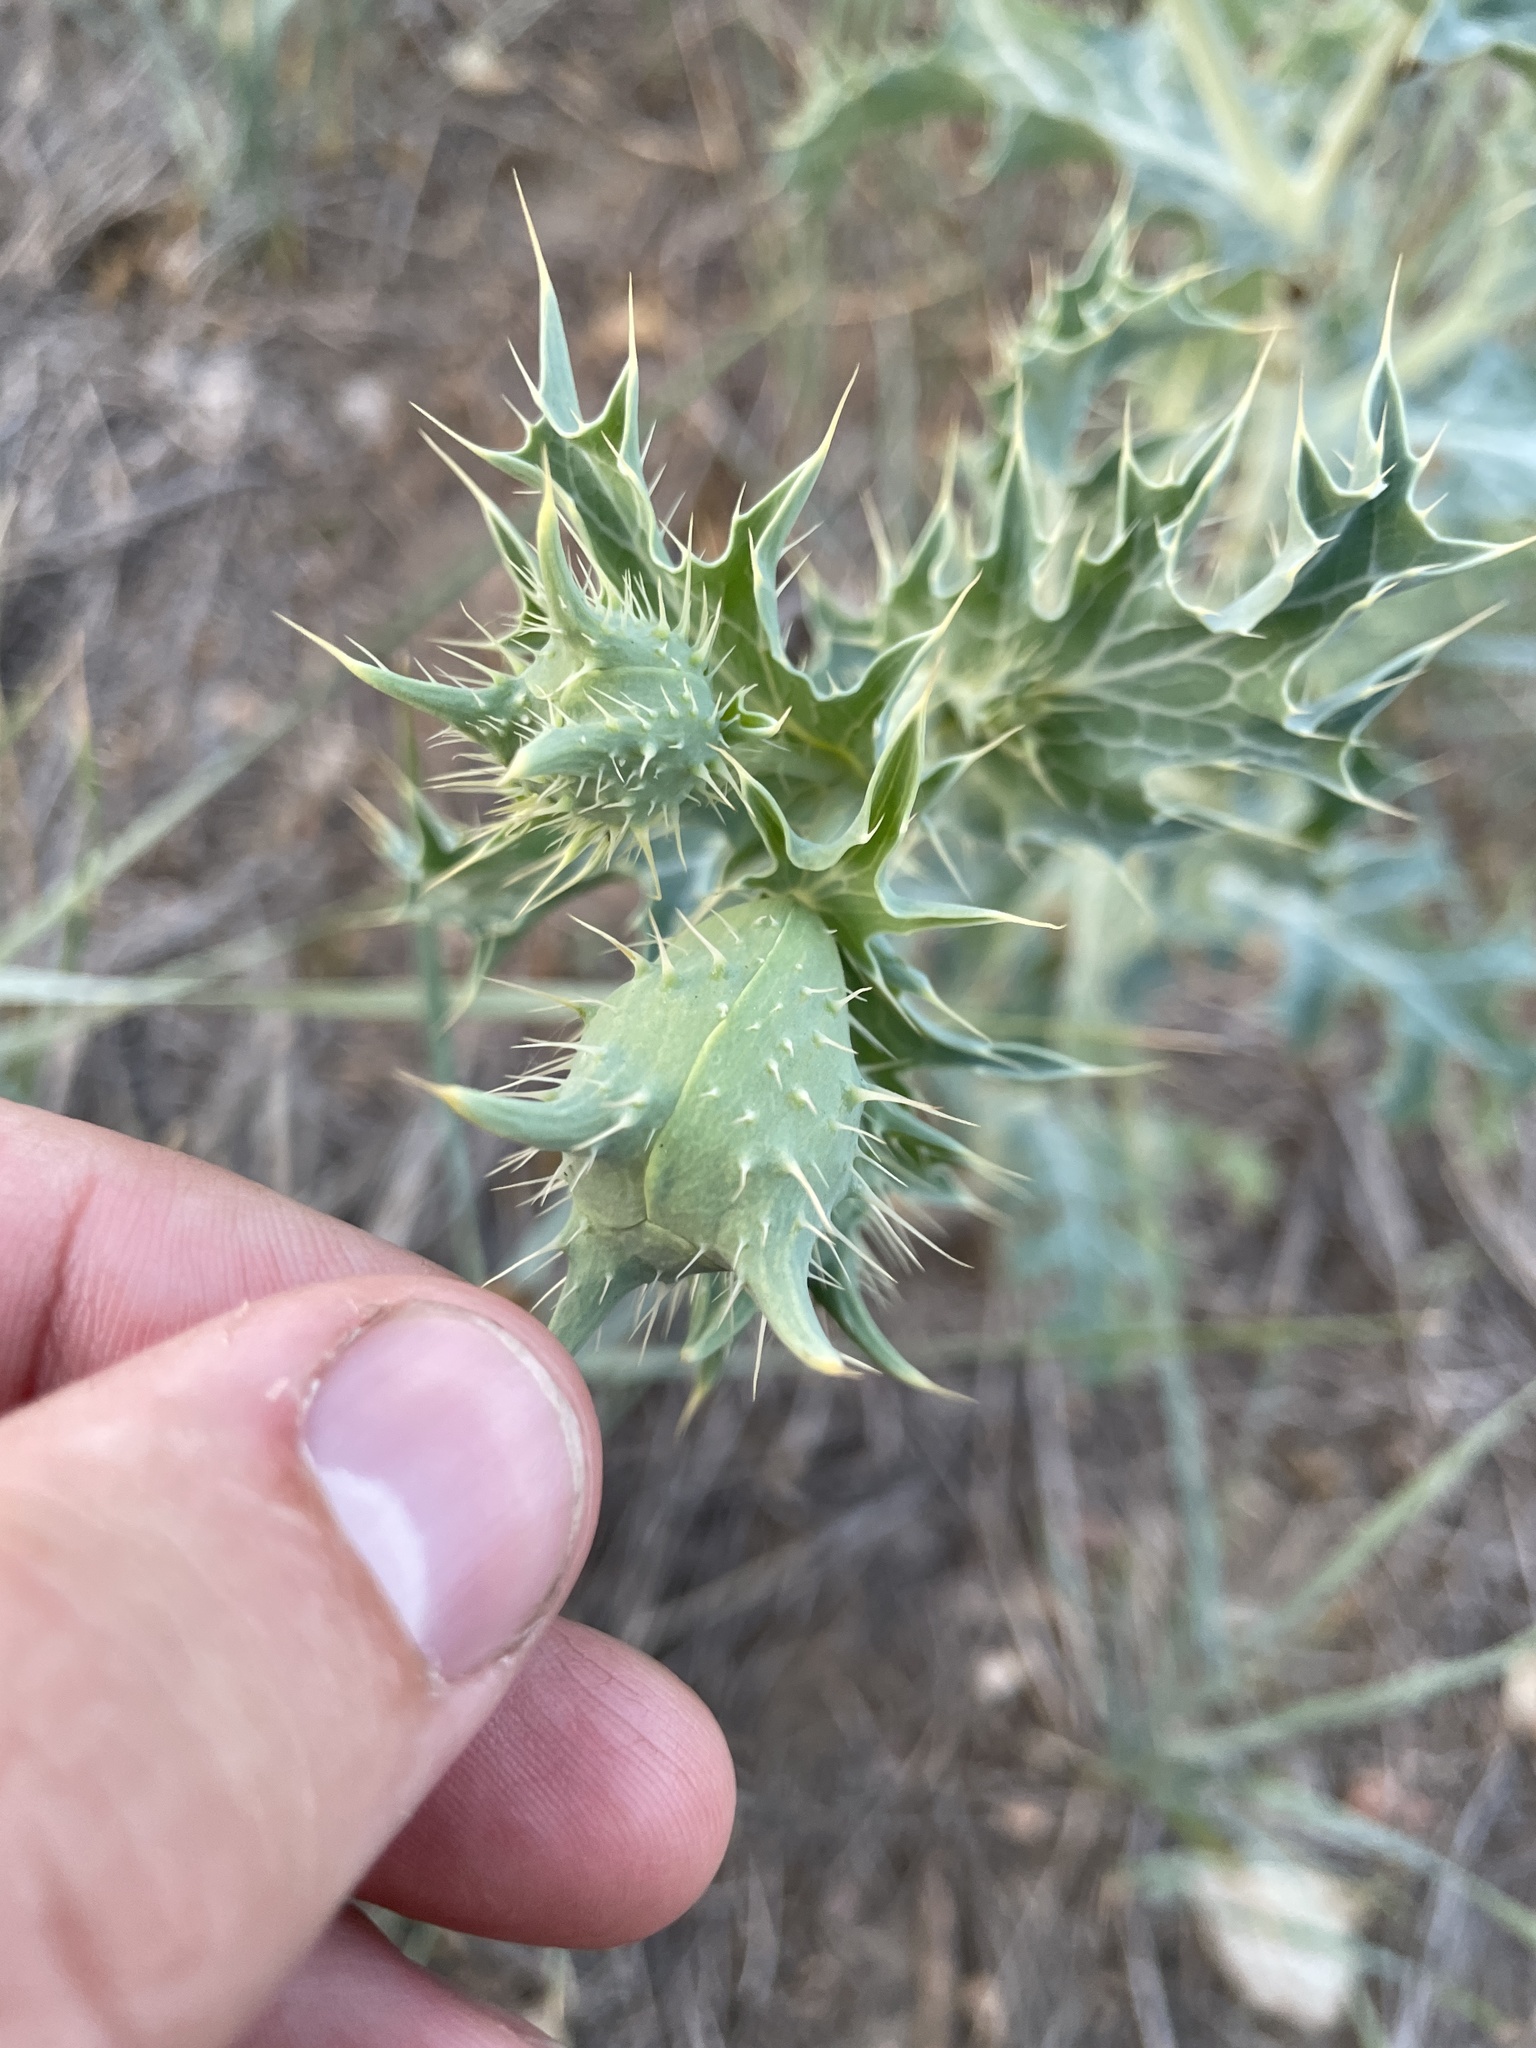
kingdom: Plantae
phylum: Tracheophyta
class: Magnoliopsida
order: Ranunculales
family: Papaveraceae
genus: Argemone
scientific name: Argemone polyanthemos
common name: Plains prickly-poppy
